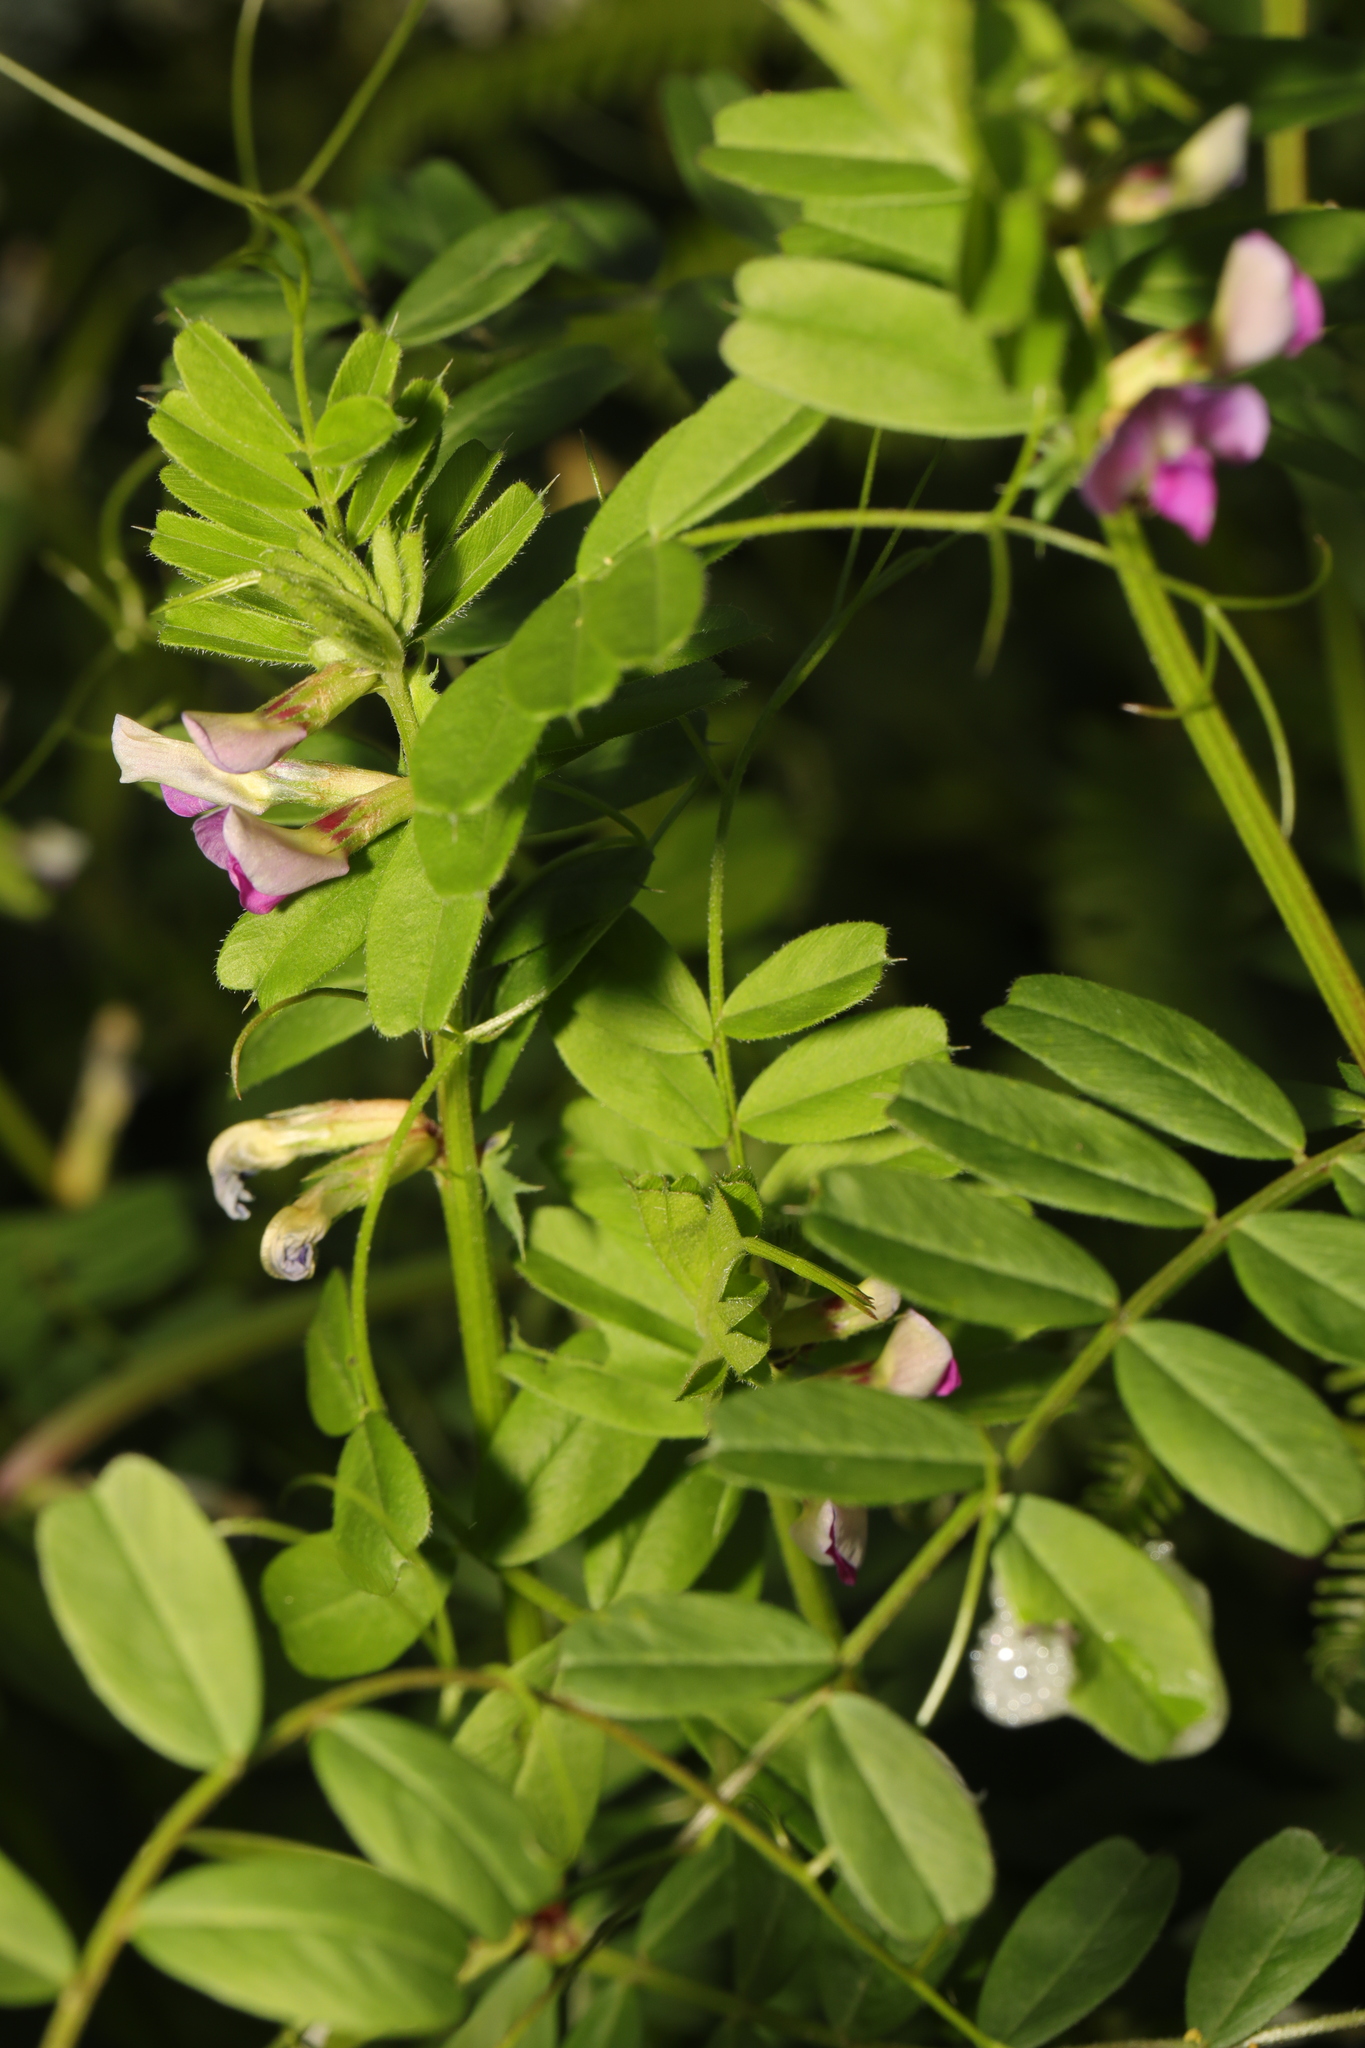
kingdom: Plantae
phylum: Tracheophyta
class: Magnoliopsida
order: Fabales
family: Fabaceae
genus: Vicia
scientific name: Vicia sativa
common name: Garden vetch
